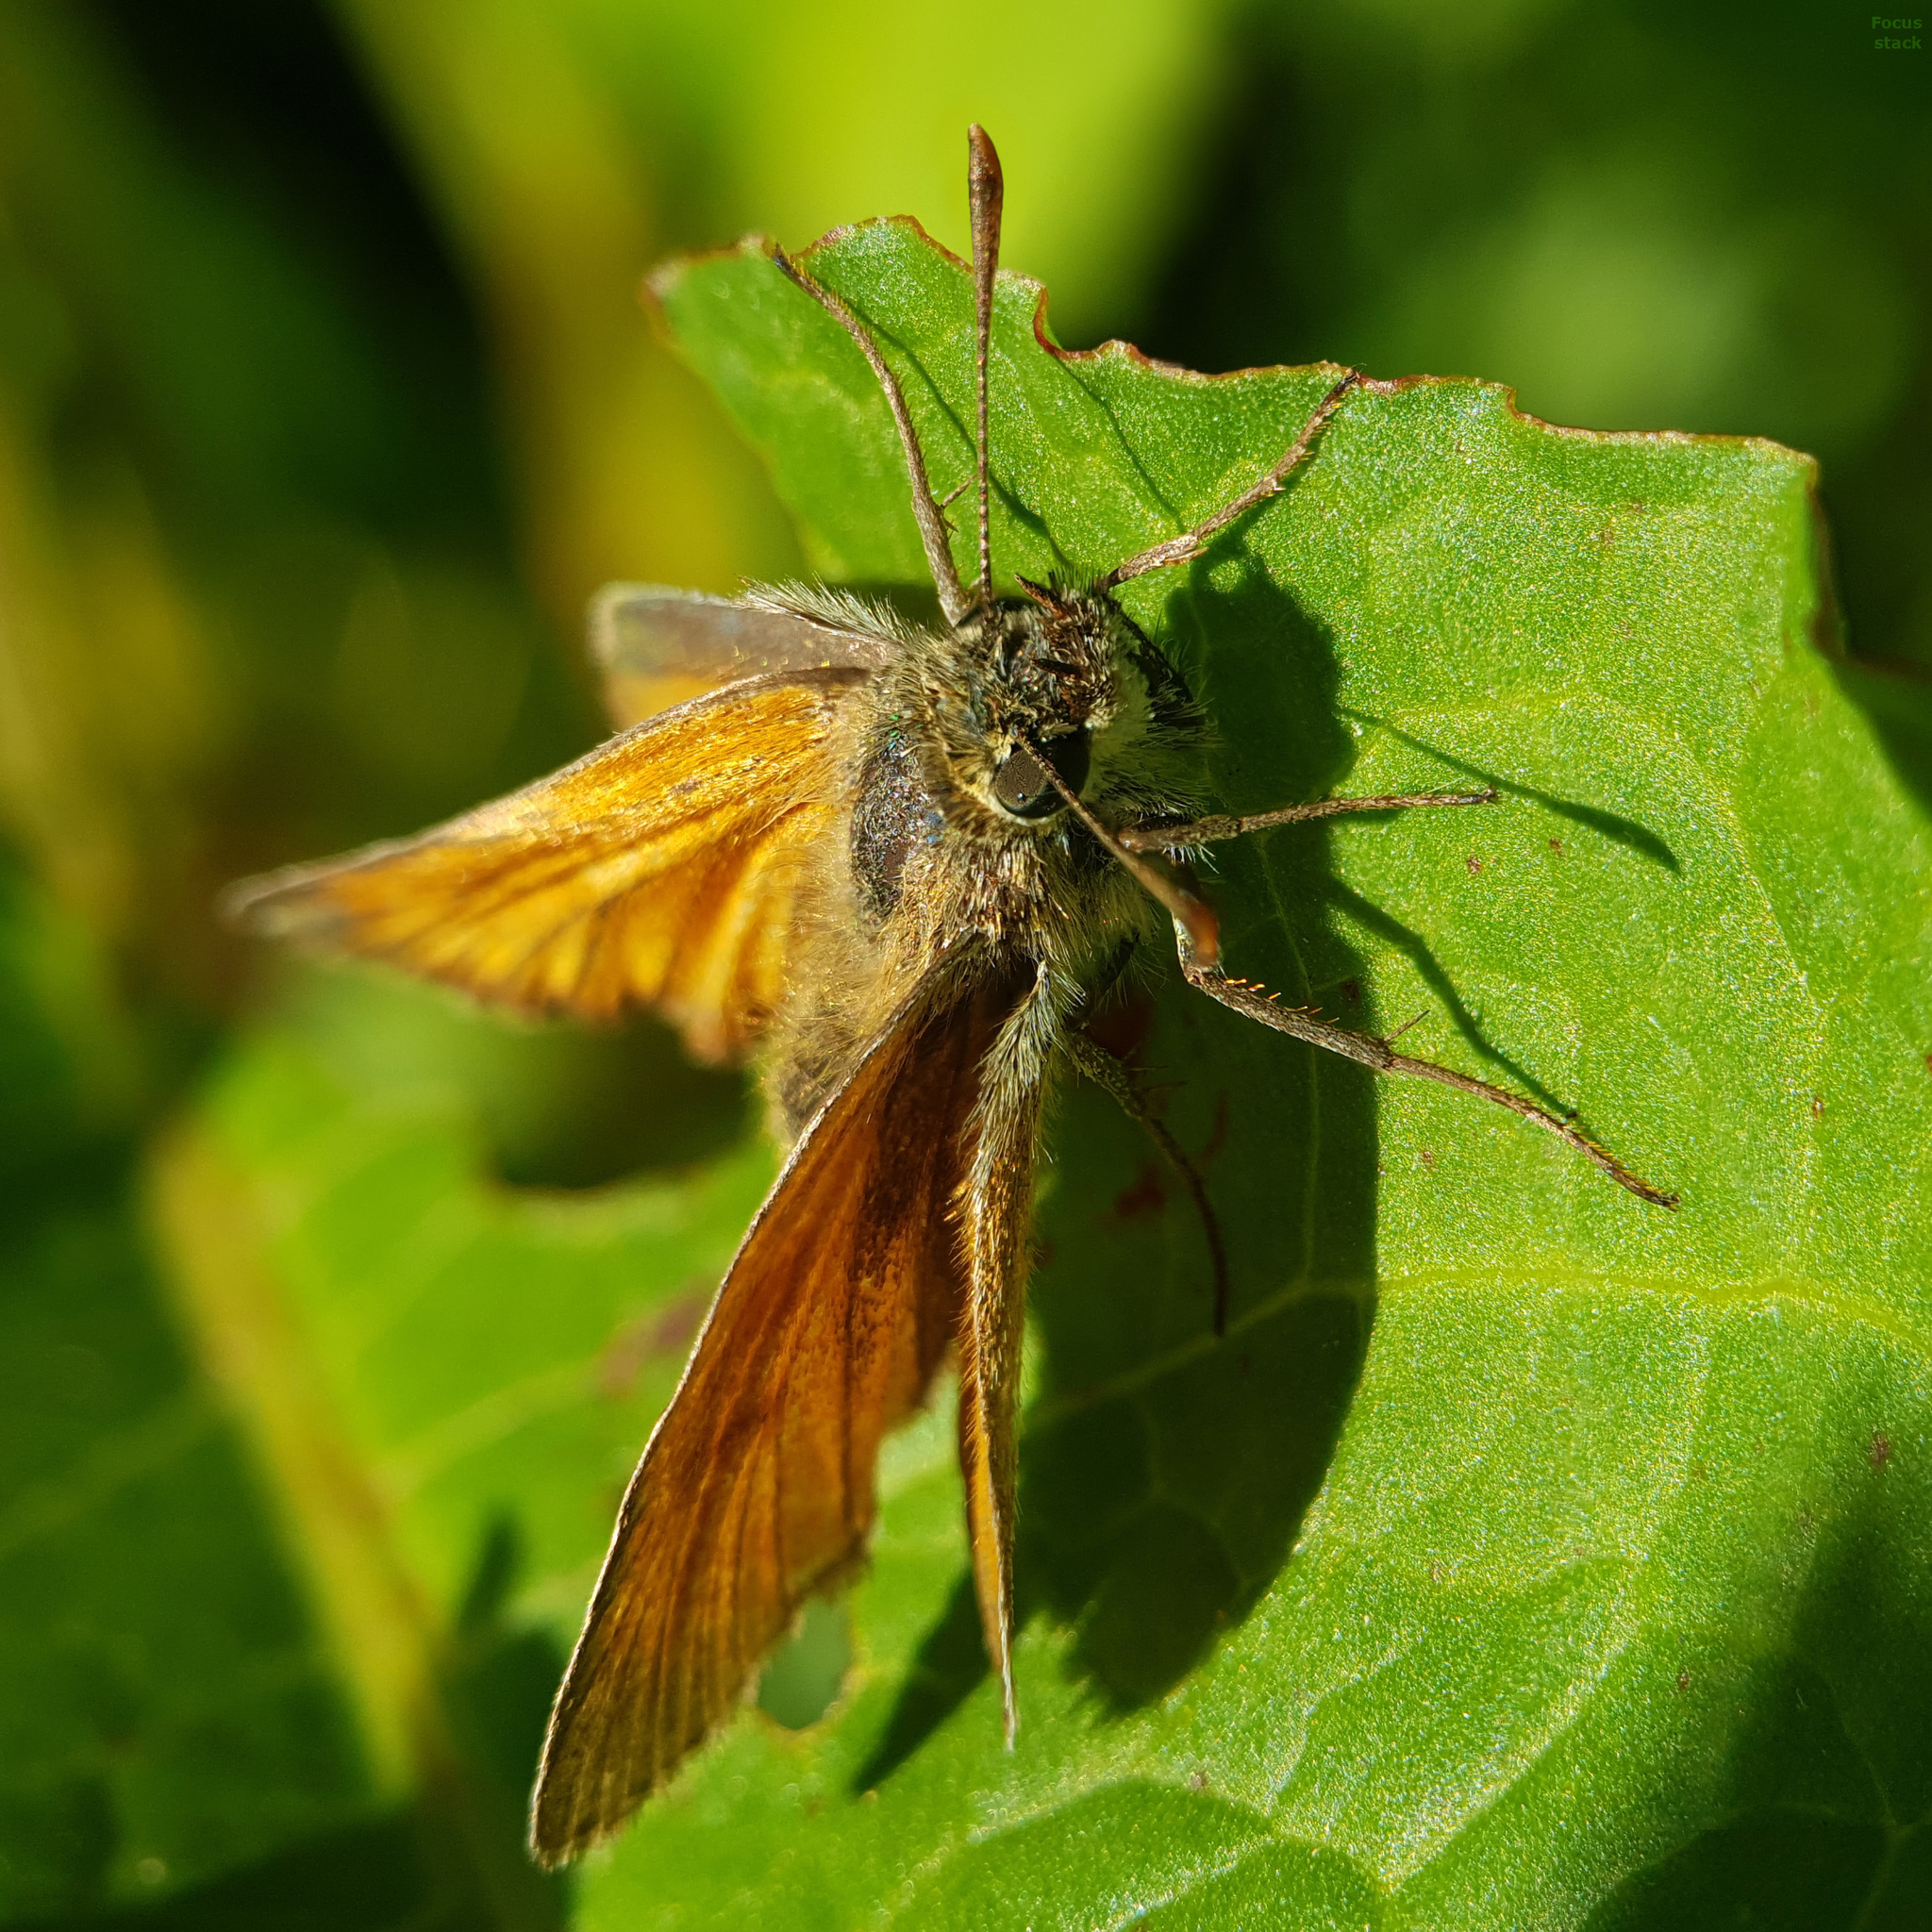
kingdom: Animalia
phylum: Arthropoda
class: Insecta
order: Lepidoptera
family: Hesperiidae
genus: Thymelicus
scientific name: Thymelicus sylvestris
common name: Small skipper
